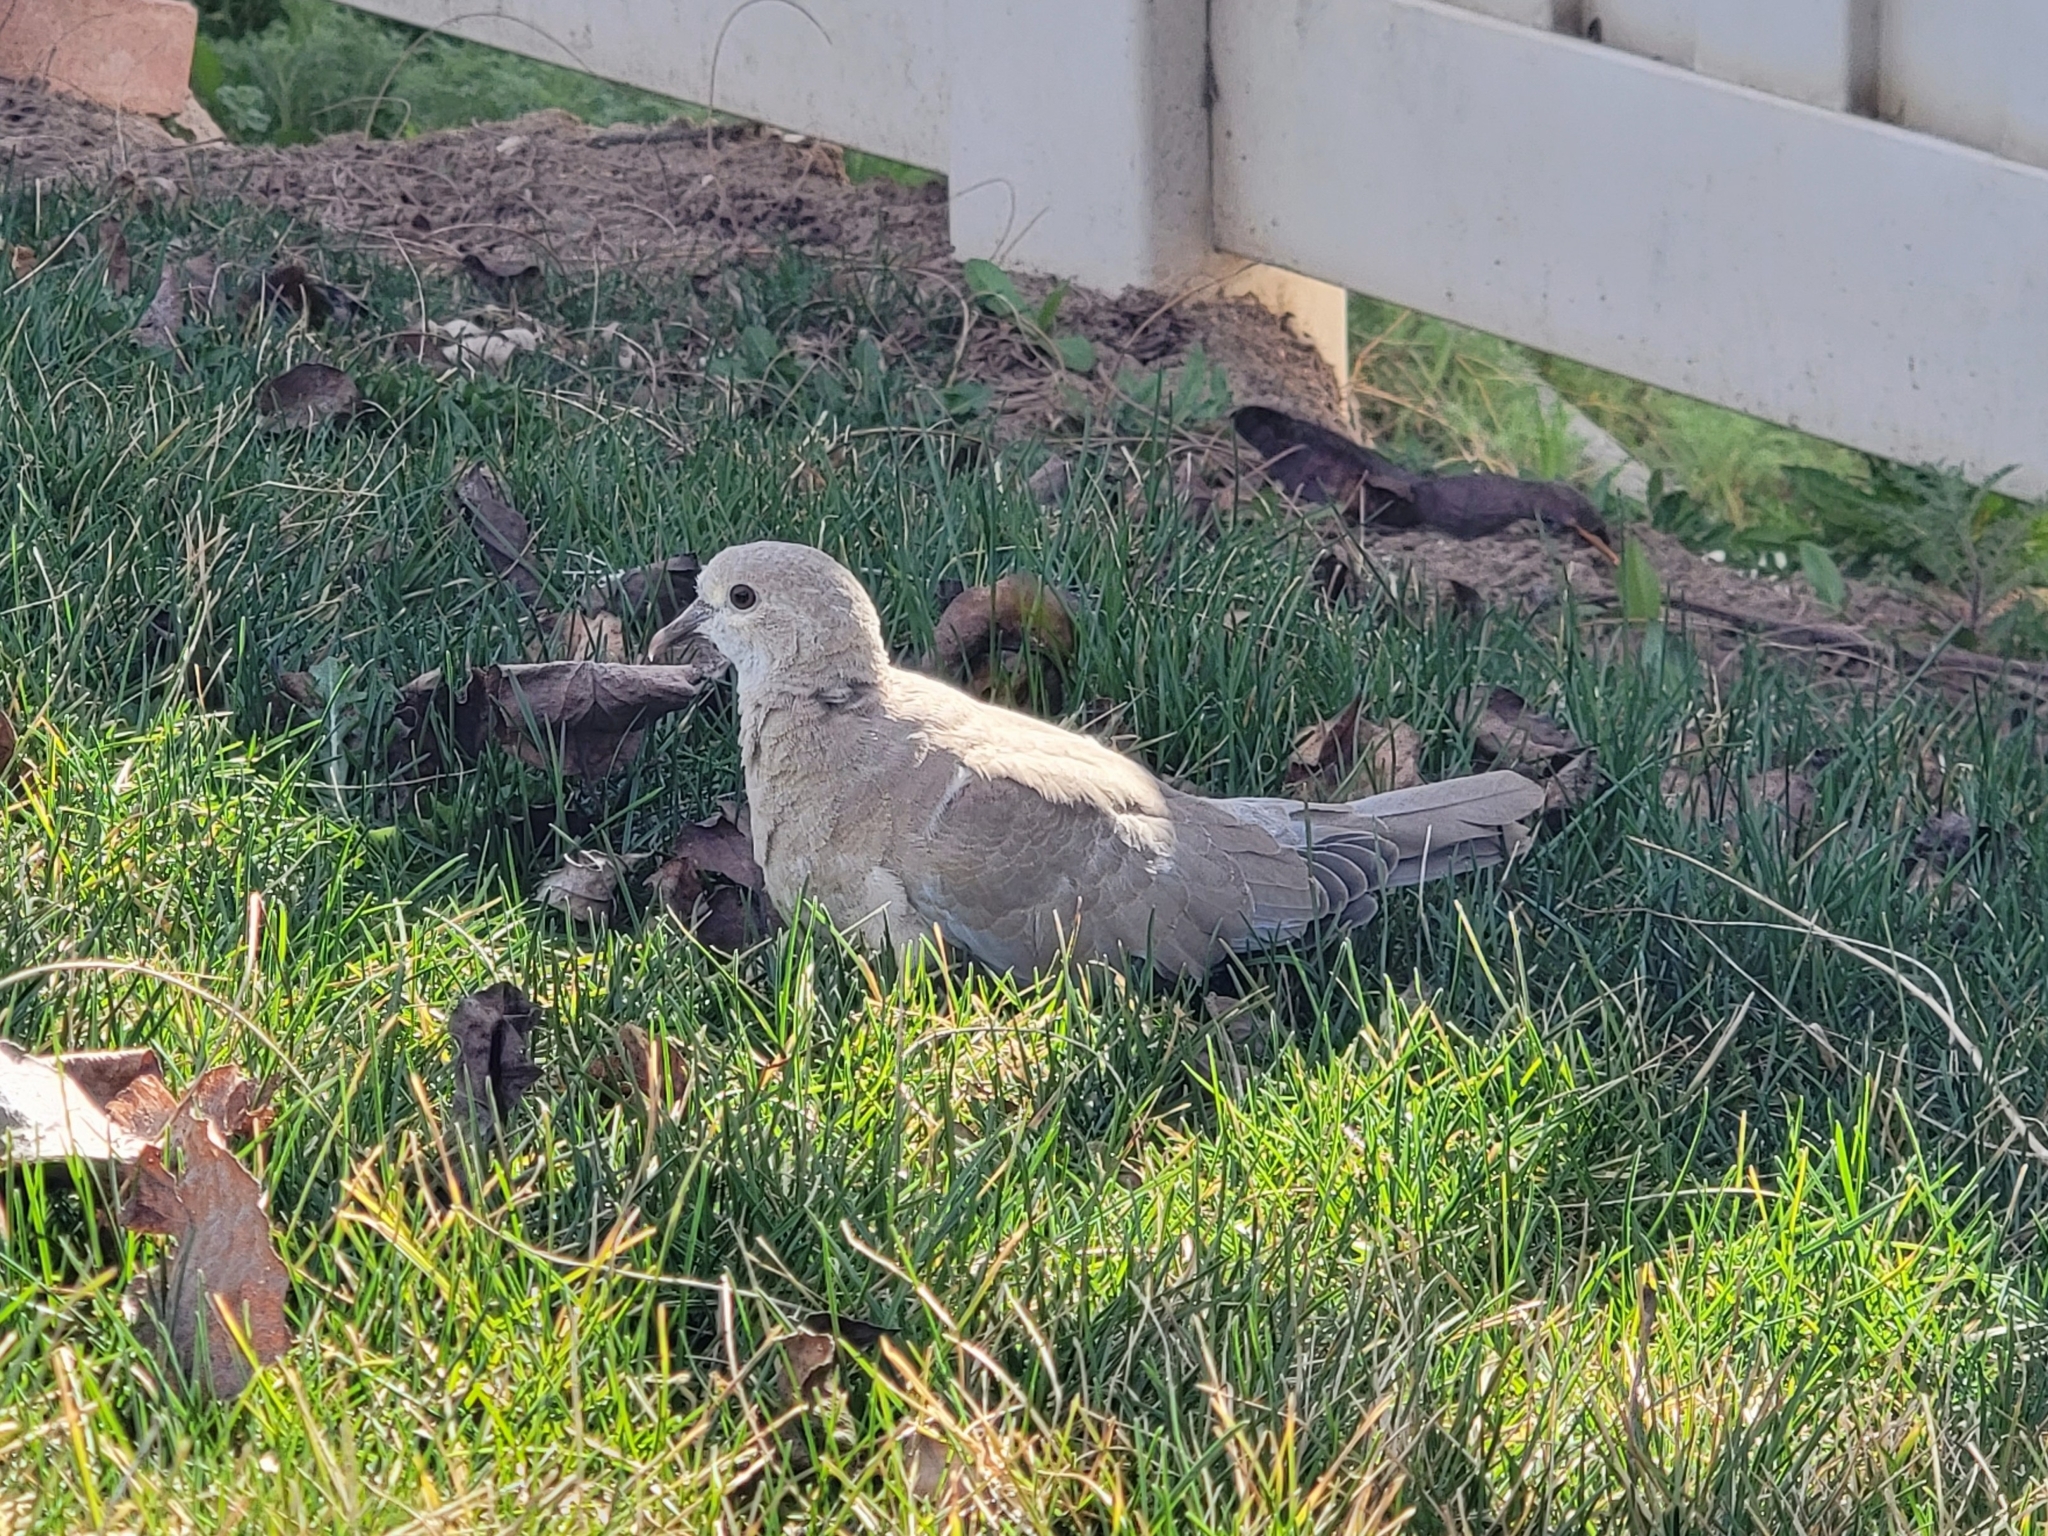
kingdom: Animalia
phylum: Chordata
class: Aves
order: Columbiformes
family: Columbidae
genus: Streptopelia
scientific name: Streptopelia decaocto
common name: Eurasian collared dove
